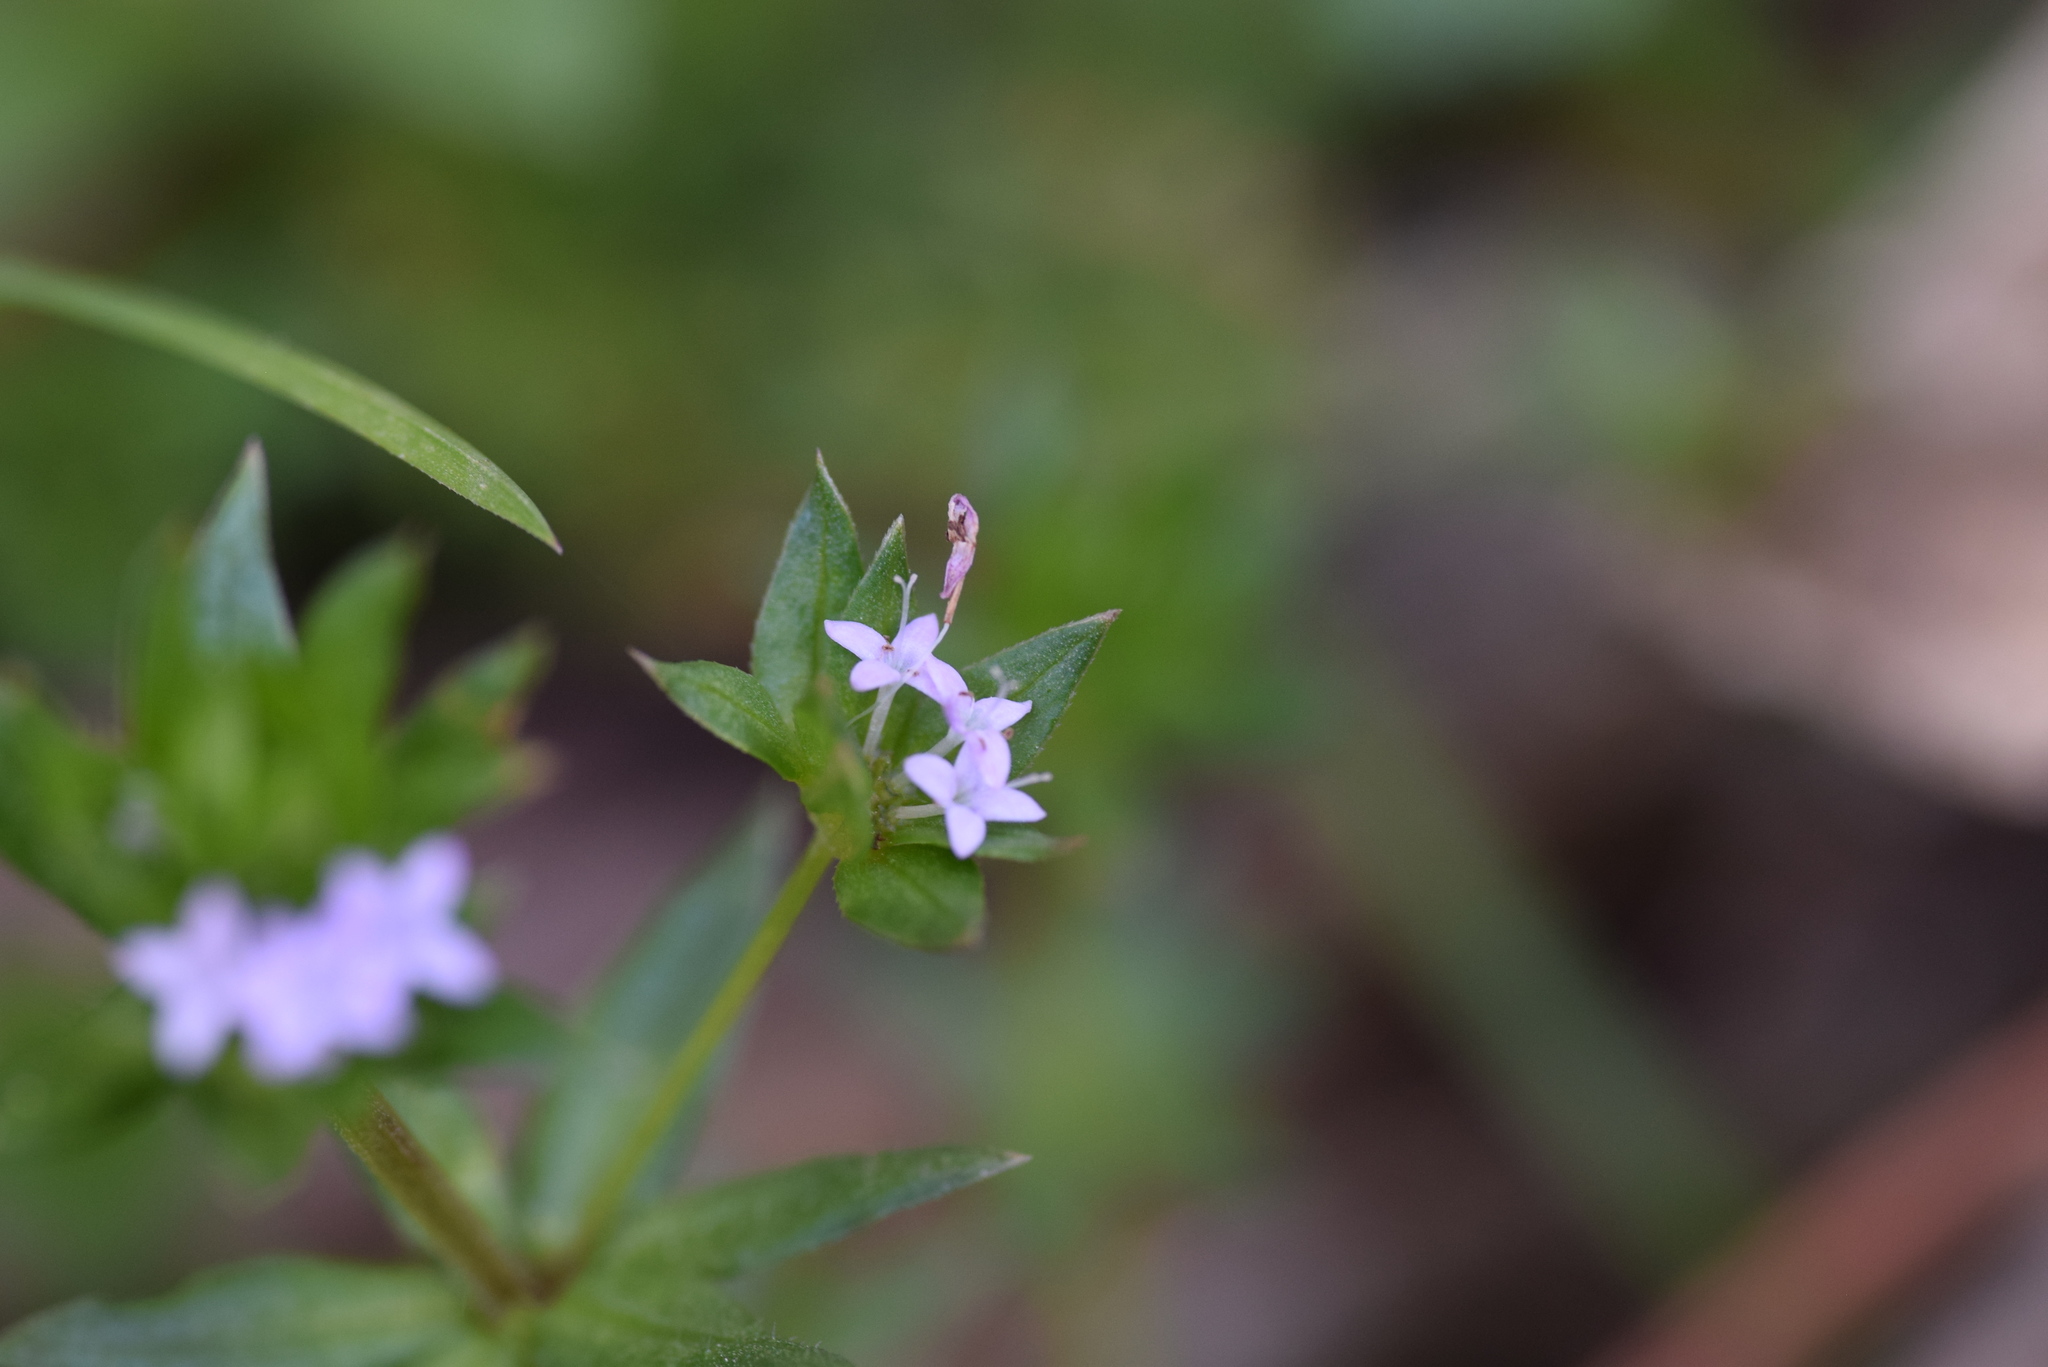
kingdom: Plantae
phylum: Tracheophyta
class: Magnoliopsida
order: Gentianales
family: Rubiaceae
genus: Sherardia
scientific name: Sherardia arvensis
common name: Field madder
